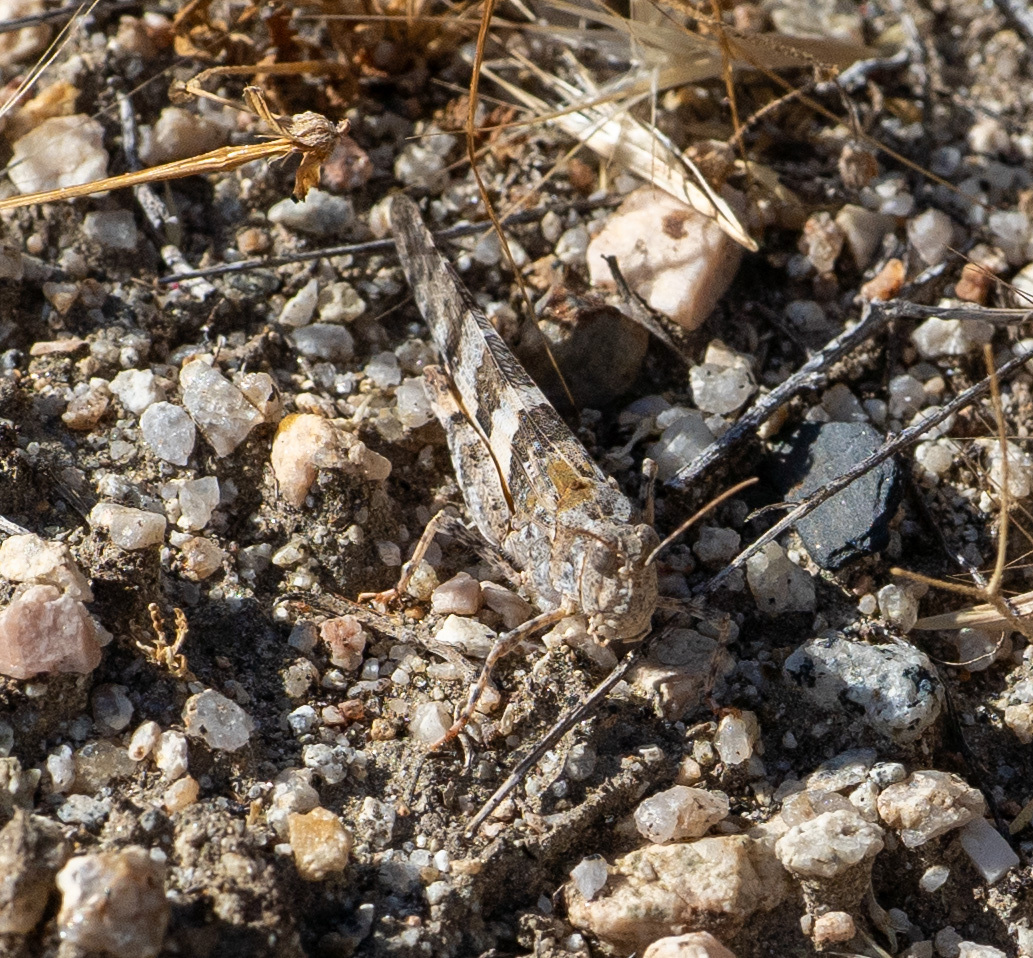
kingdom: Animalia
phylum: Arthropoda
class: Insecta
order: Orthoptera
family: Acrididae
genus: Trimerotropis
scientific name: Trimerotropis pallidipennis
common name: Pallid-winged grasshopper
